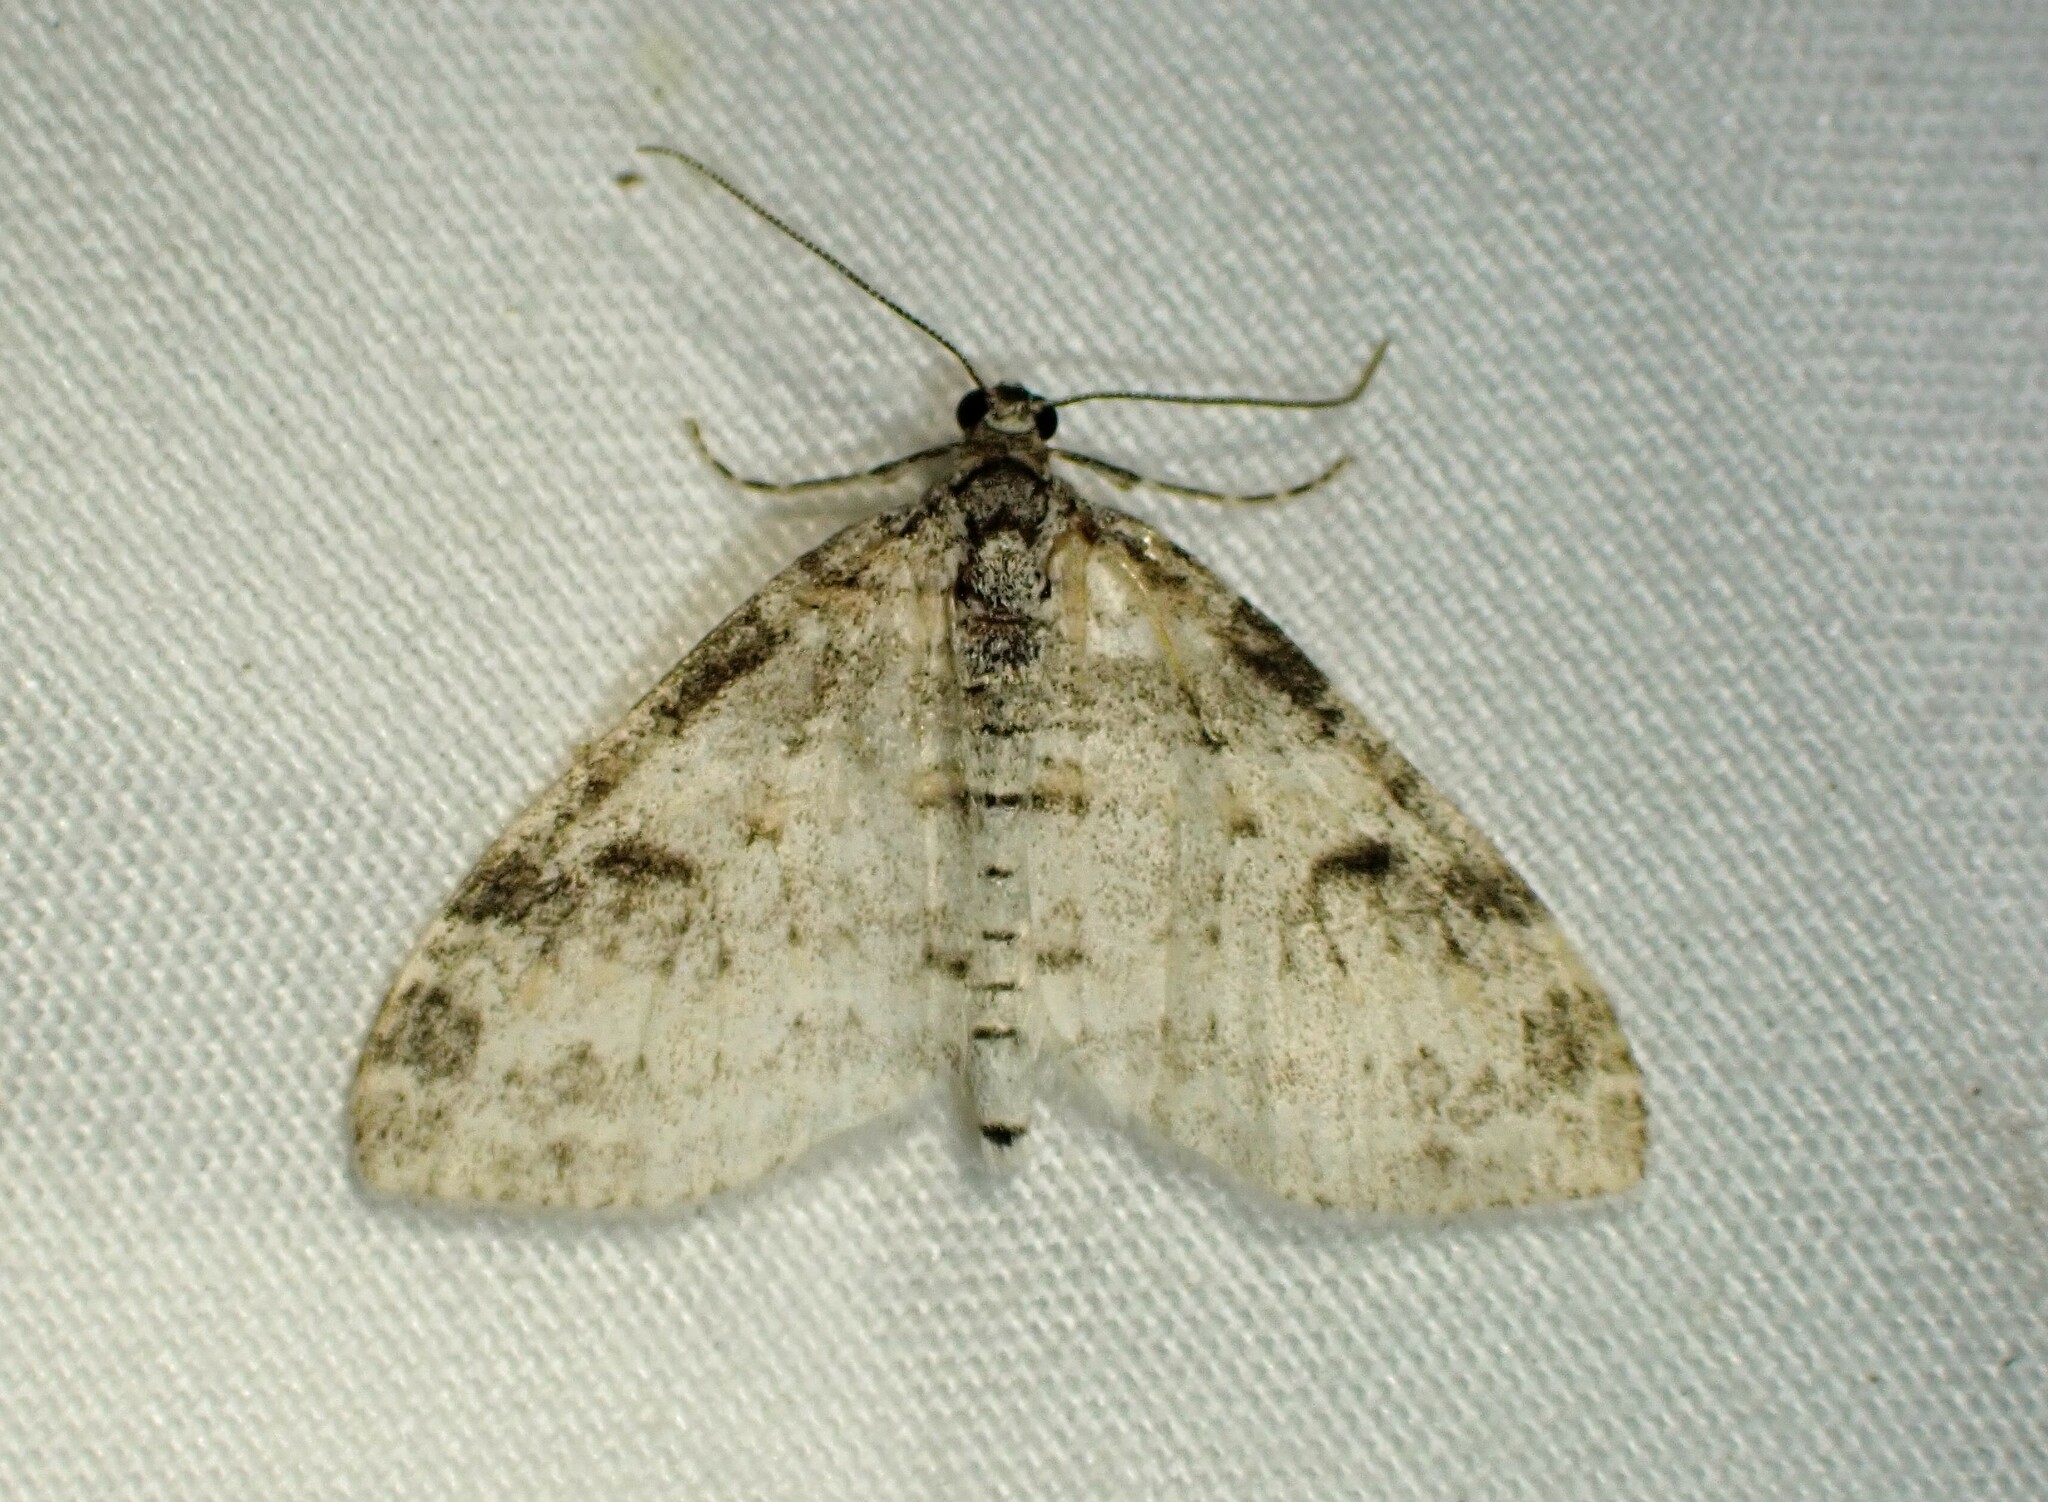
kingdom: Animalia
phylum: Arthropoda
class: Insecta
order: Lepidoptera
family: Geometridae
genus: Lobophora
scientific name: Lobophora nivigerata
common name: Powdered bigwing
